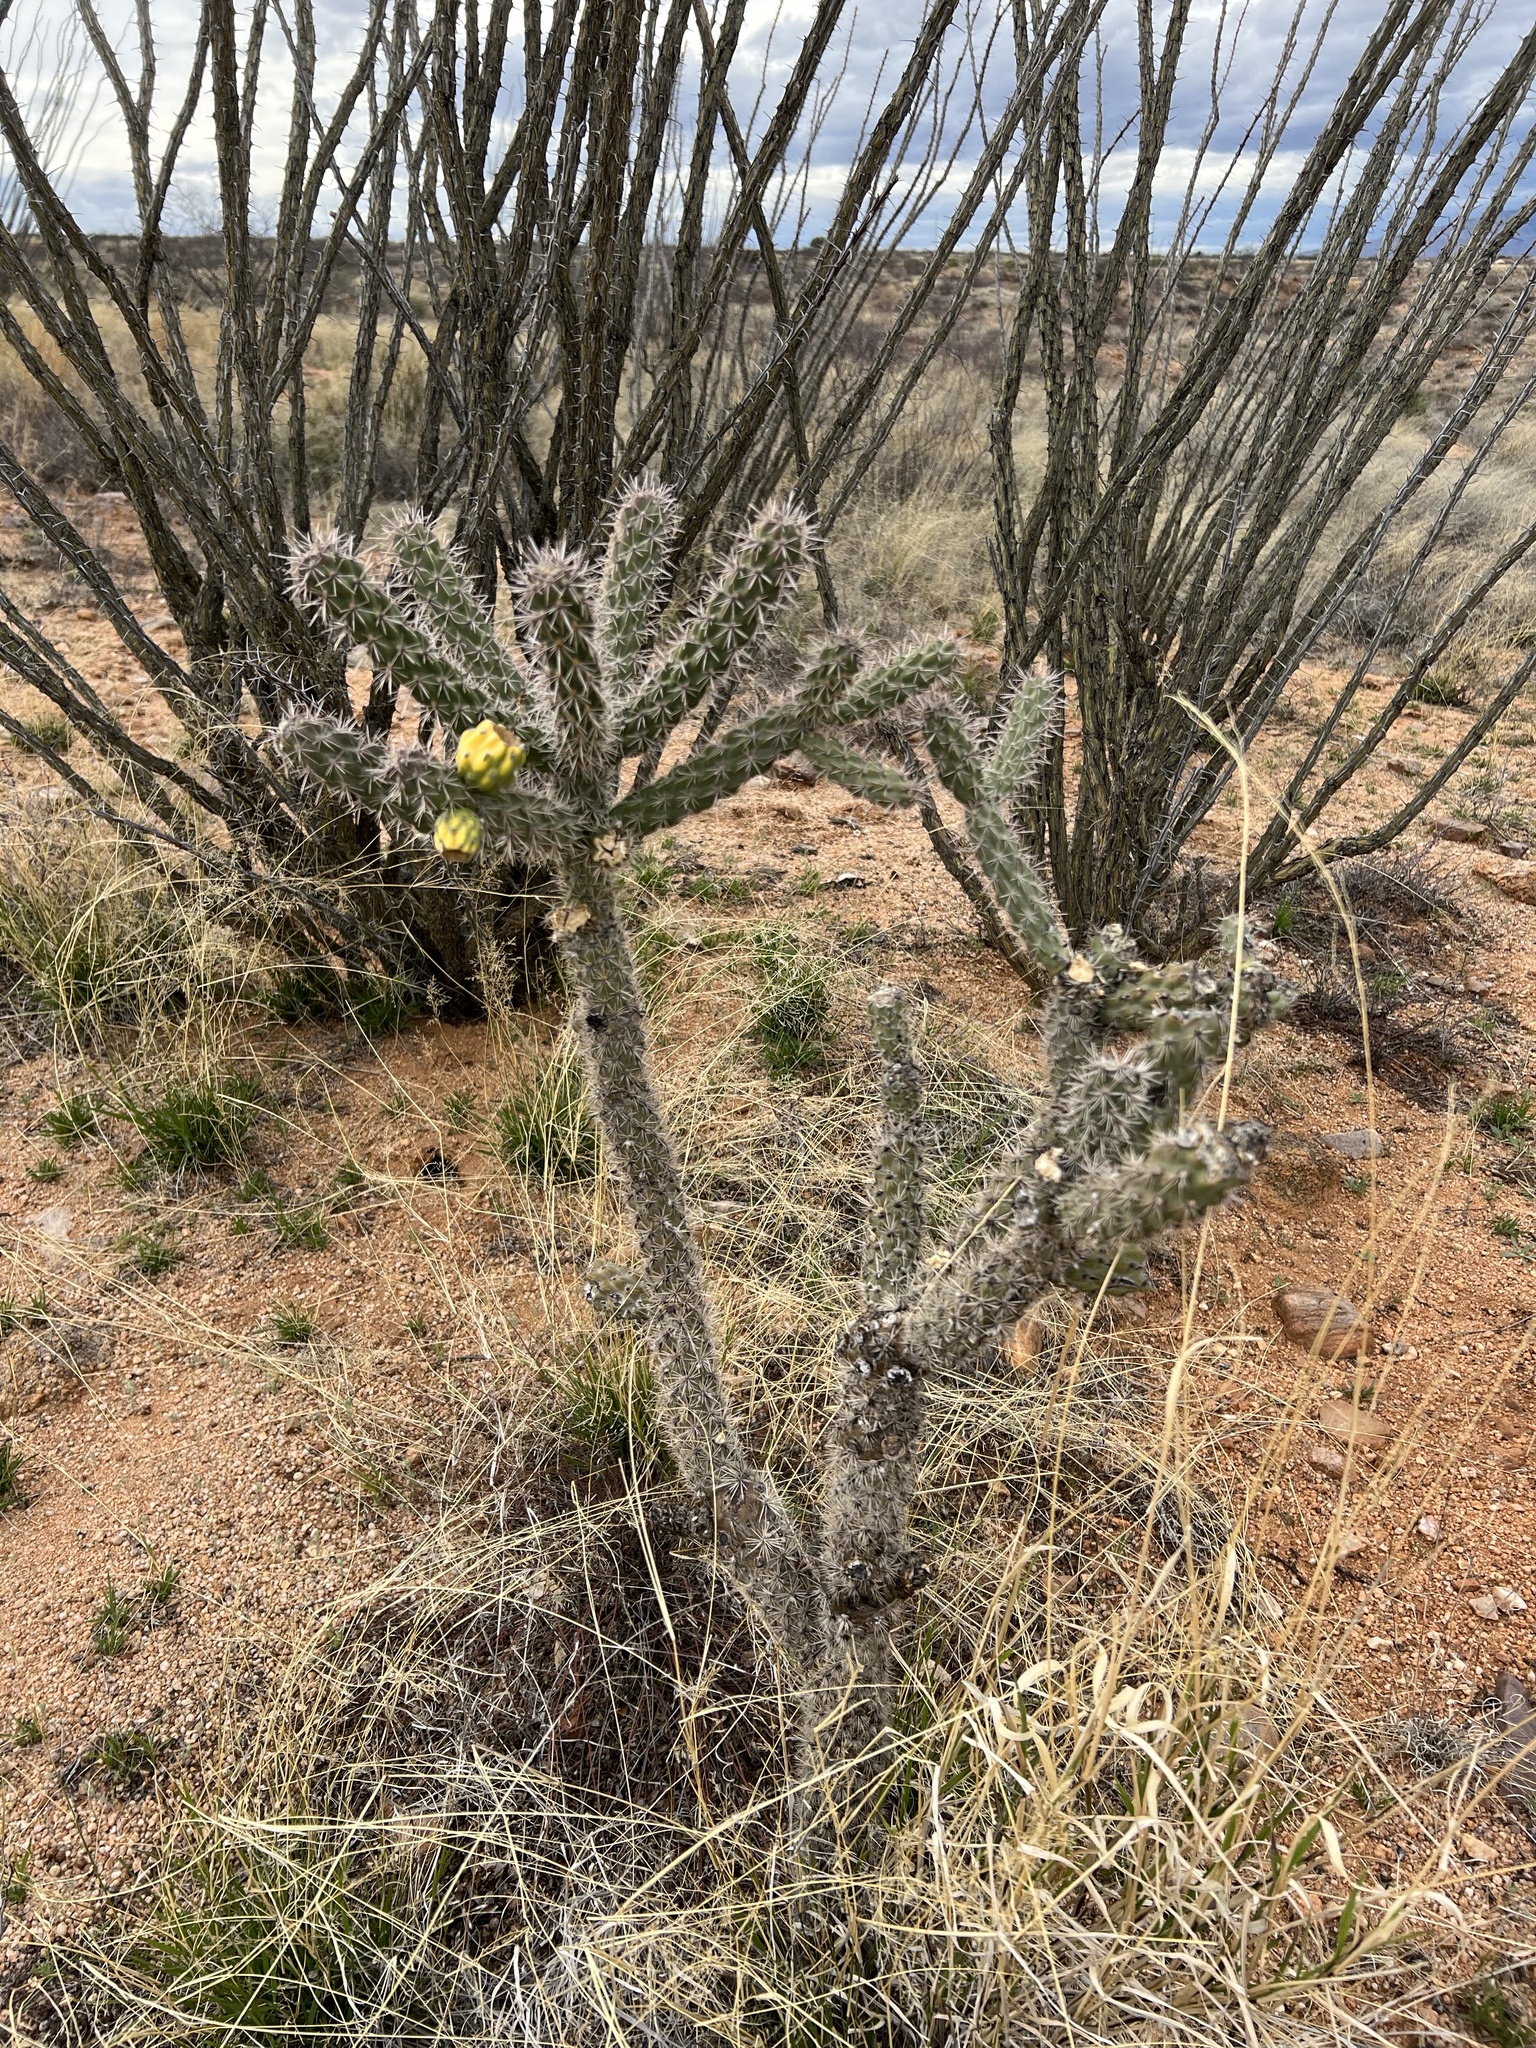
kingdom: Plantae
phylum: Tracheophyta
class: Magnoliopsida
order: Caryophyllales
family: Cactaceae
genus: Cylindropuntia
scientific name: Cylindropuntia imbricata
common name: Candelabrum cactus
